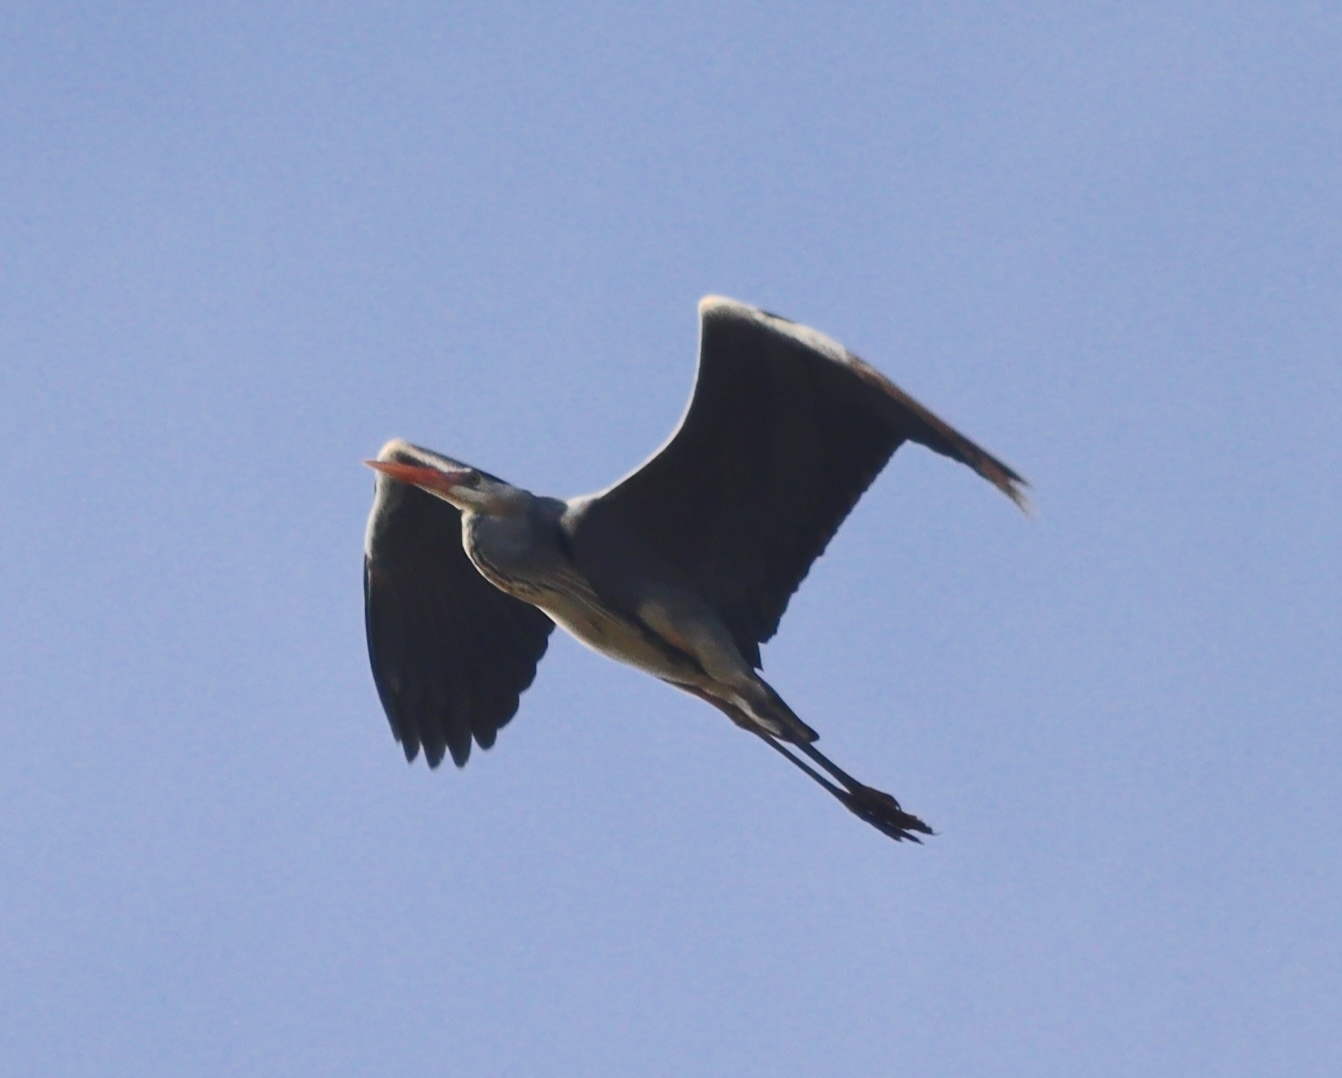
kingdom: Animalia
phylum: Chordata
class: Aves
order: Pelecaniformes
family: Ardeidae
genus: Ardea
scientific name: Ardea cinerea
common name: Grey heron
